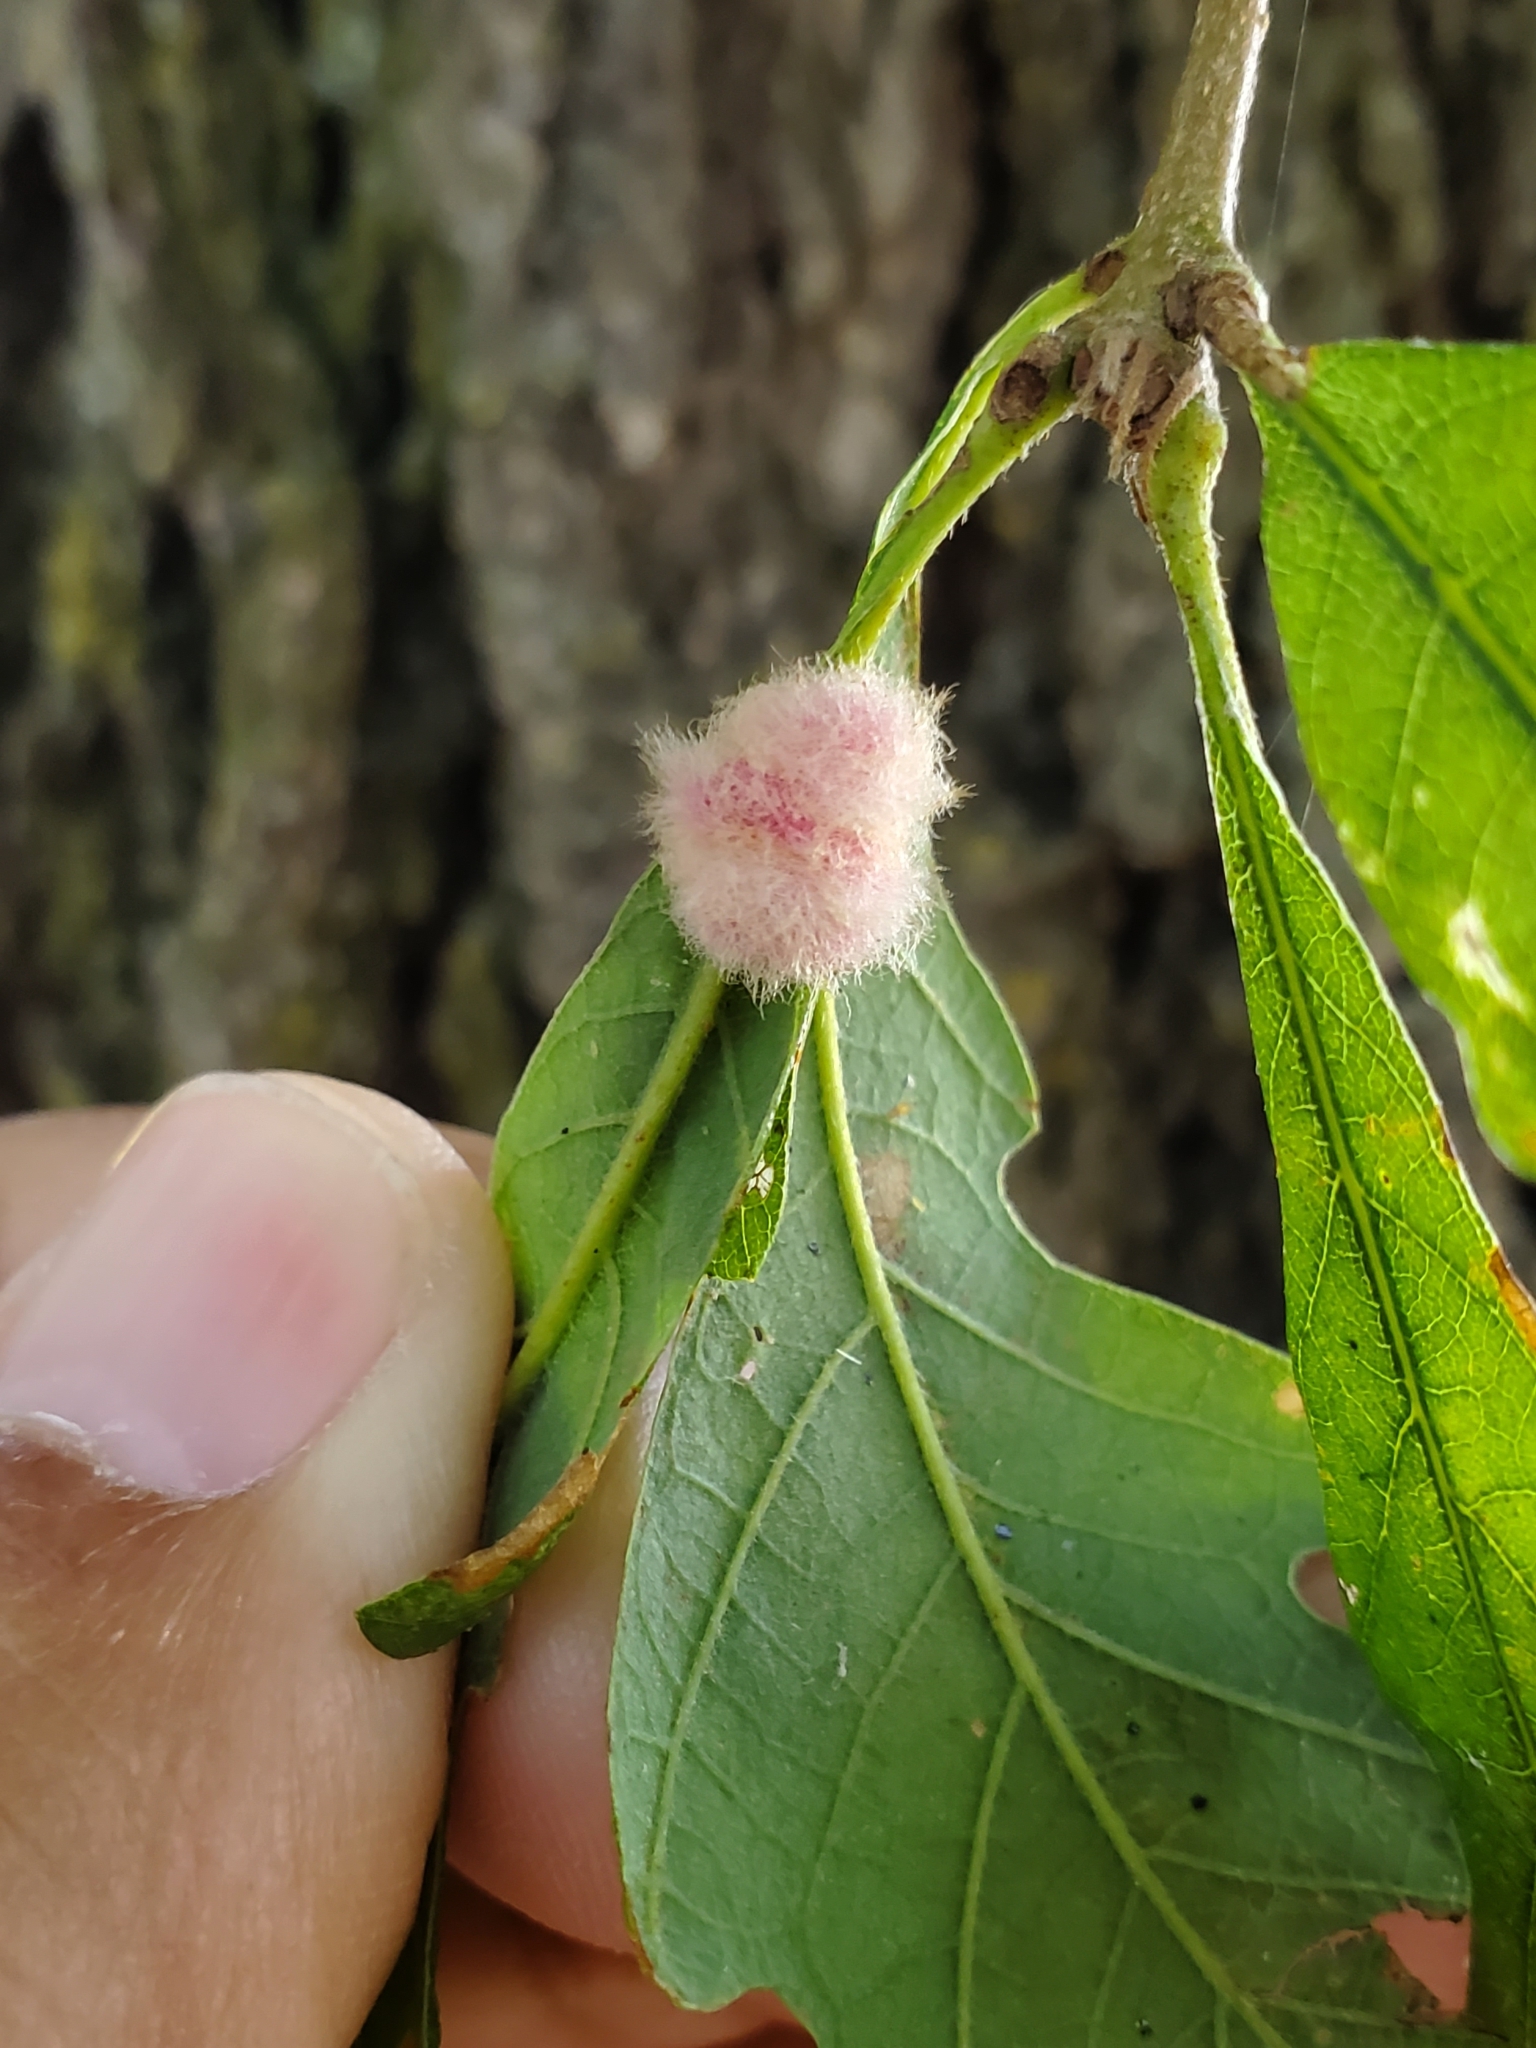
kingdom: Animalia
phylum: Arthropoda
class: Insecta
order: Hymenoptera
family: Cynipidae
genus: Andricus
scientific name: Andricus Druon ignotum
